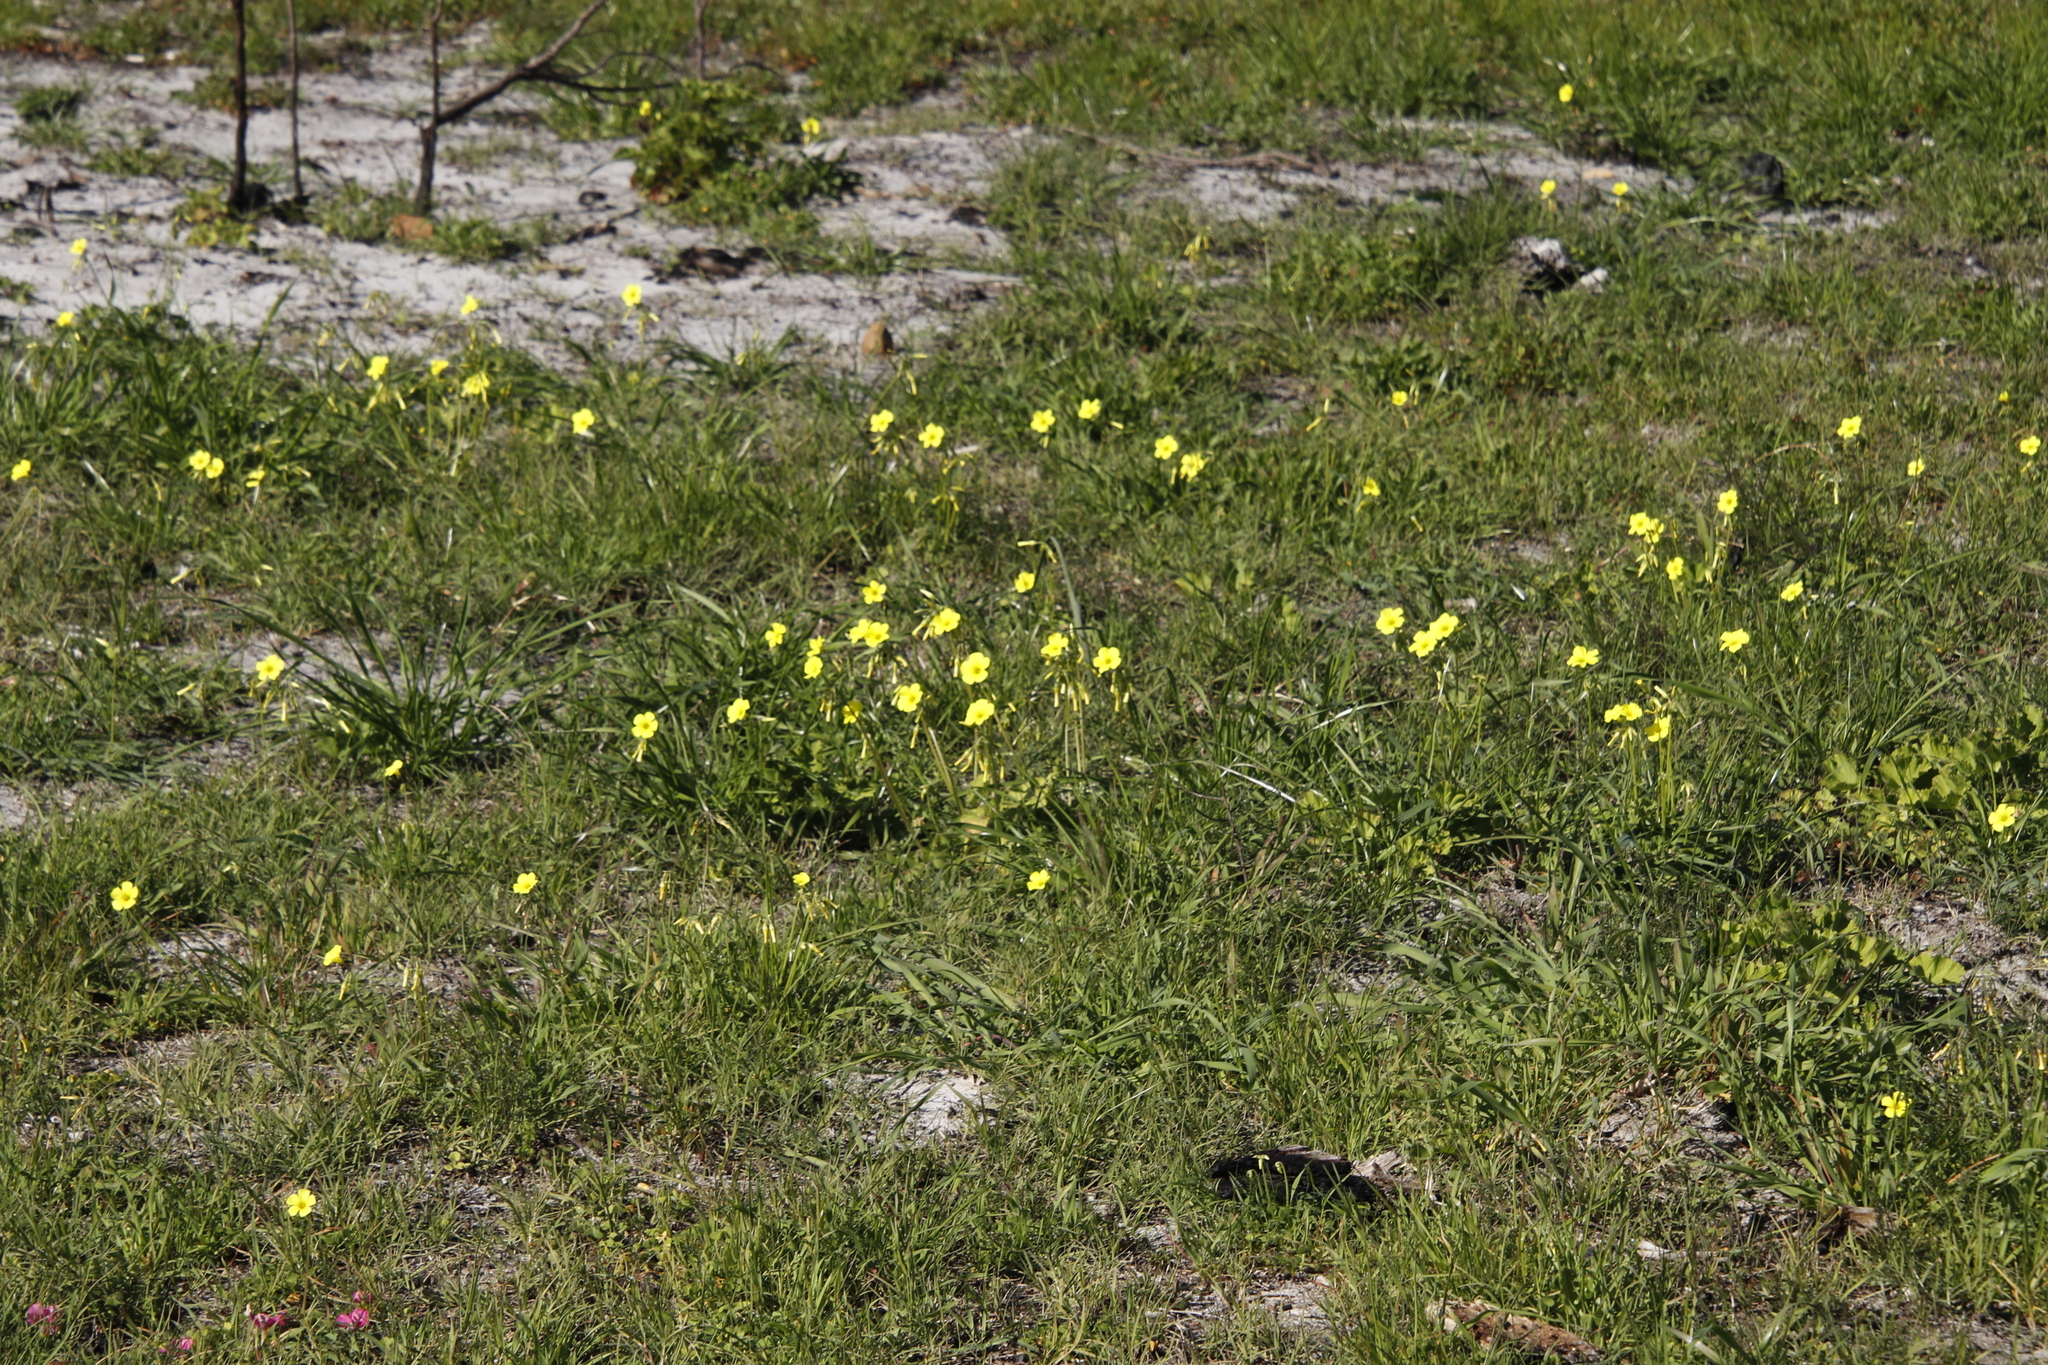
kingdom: Plantae
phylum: Tracheophyta
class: Magnoliopsida
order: Oxalidales
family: Oxalidaceae
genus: Oxalis
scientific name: Oxalis pes-caprae
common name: Bermuda-buttercup
